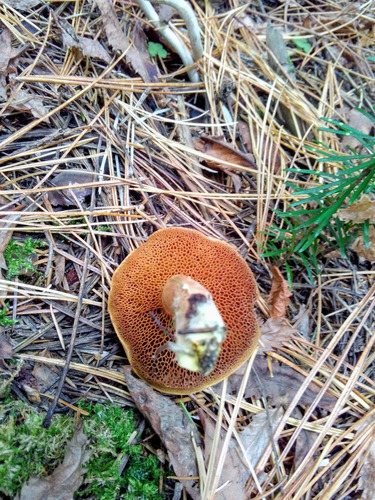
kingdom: Fungi
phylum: Basidiomycota
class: Agaricomycetes
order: Boletales
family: Boletaceae
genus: Chalciporus
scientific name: Chalciporus piperatus
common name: Peppery bolete
